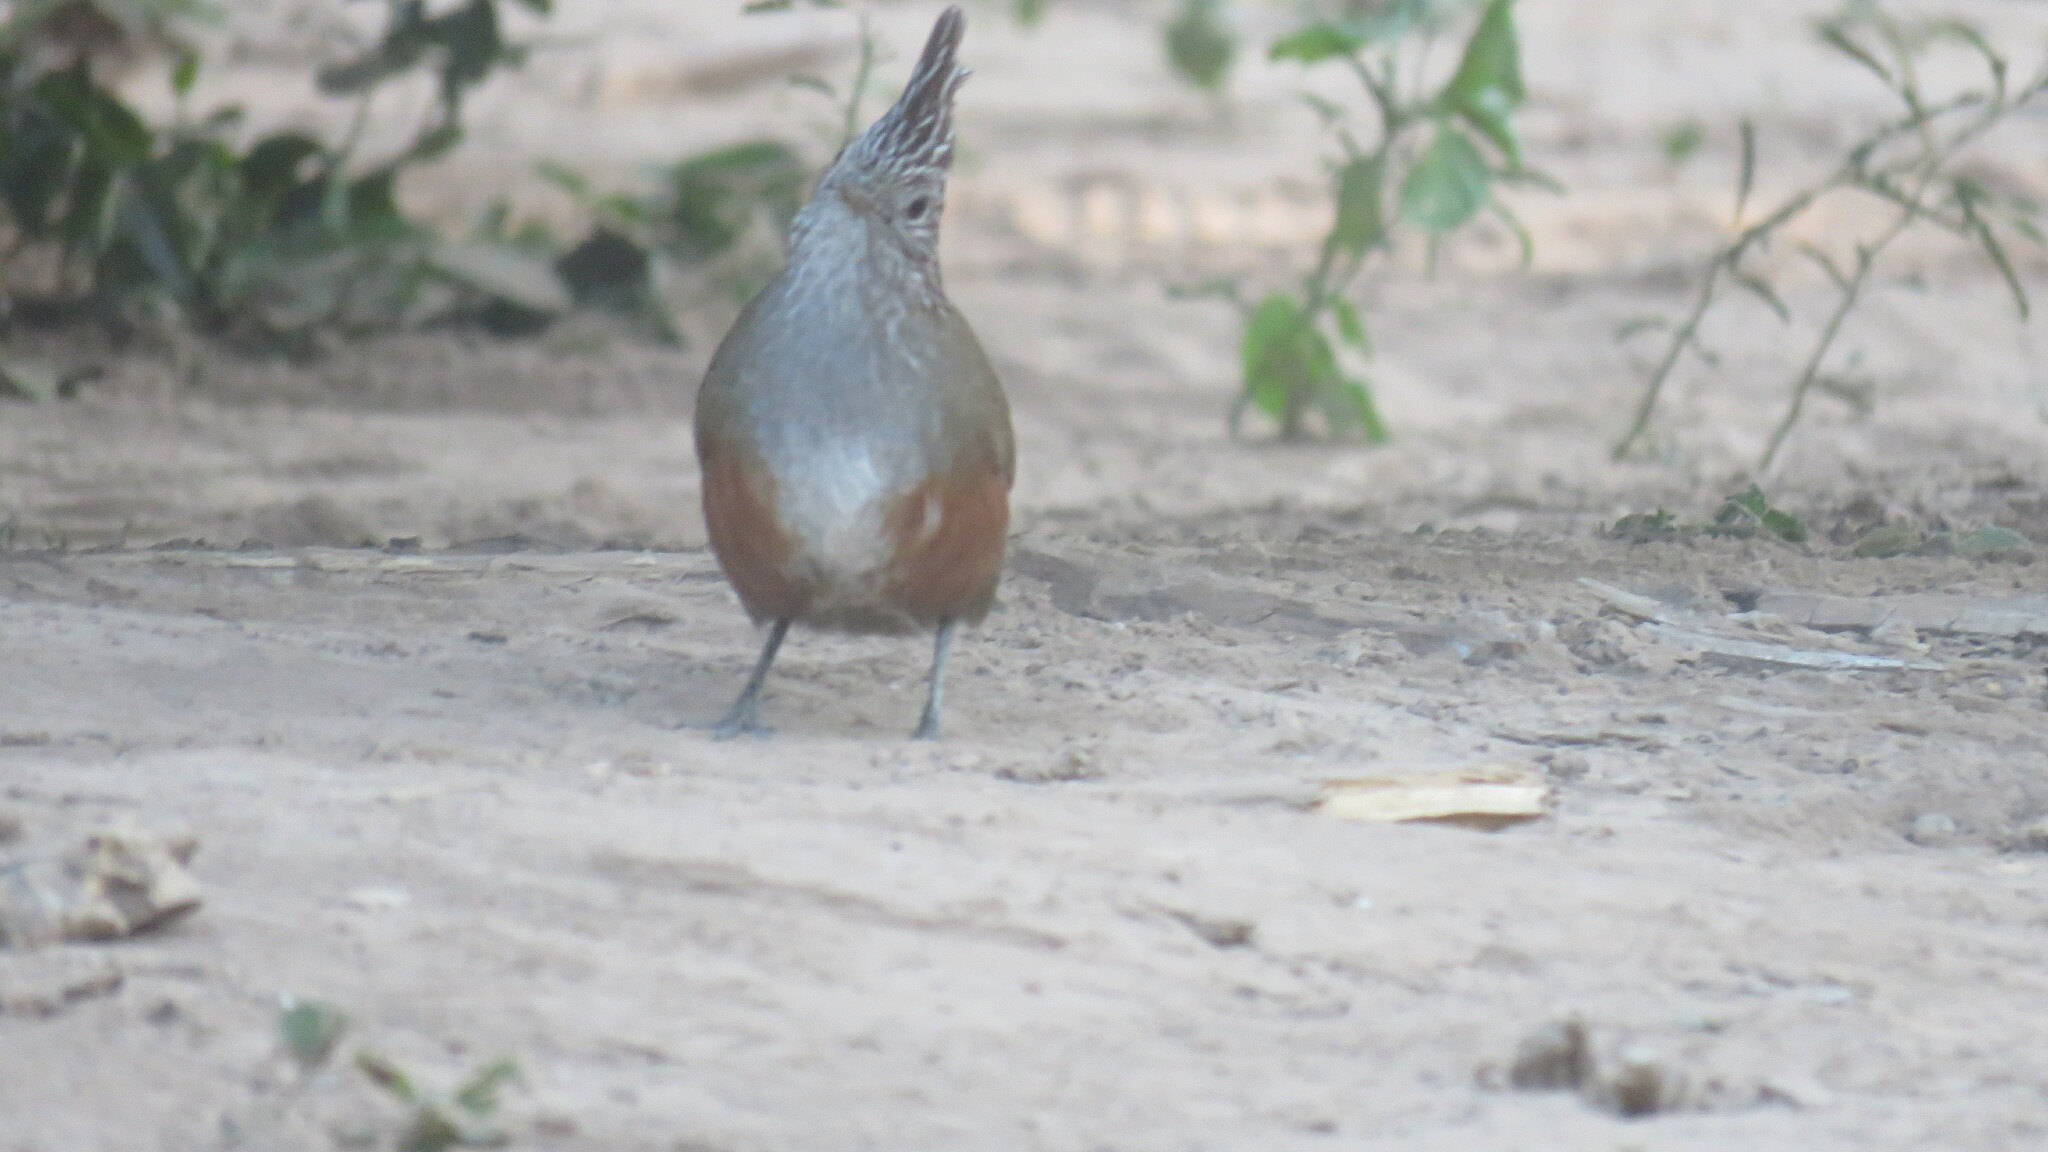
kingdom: Animalia
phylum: Chordata
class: Aves
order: Passeriformes
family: Rhinocryptidae
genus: Rhinocrypta
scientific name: Rhinocrypta lanceolata
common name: Crested gallito
